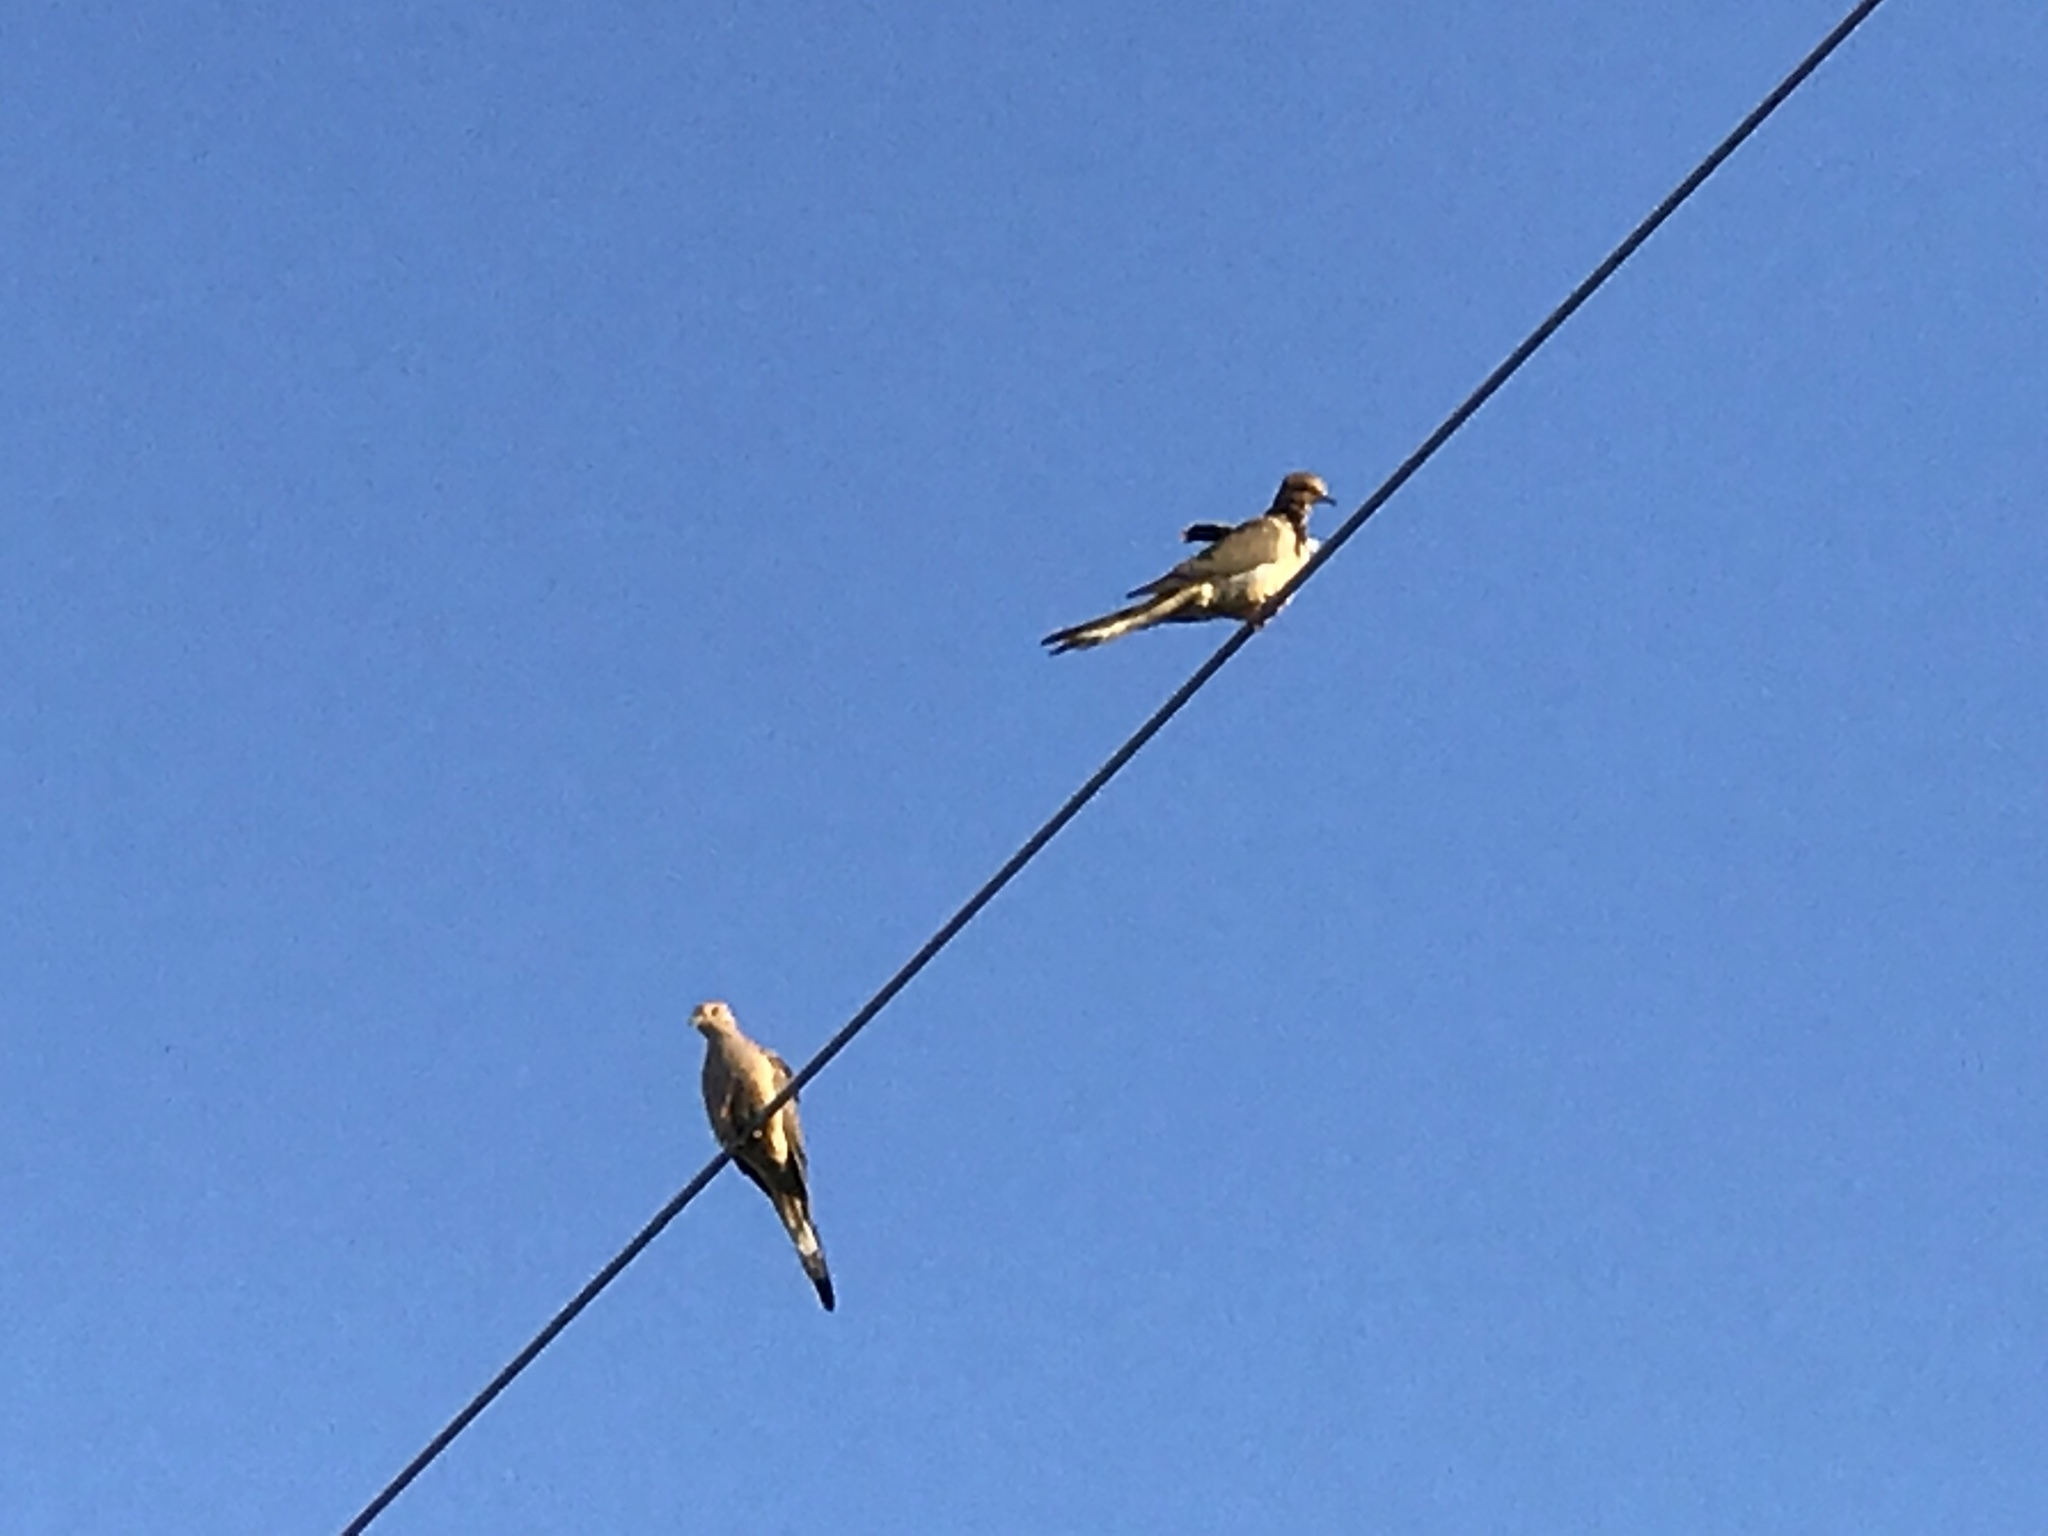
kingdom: Animalia
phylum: Chordata
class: Aves
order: Columbiformes
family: Columbidae
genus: Zenaida
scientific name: Zenaida macroura
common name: Mourning dove
